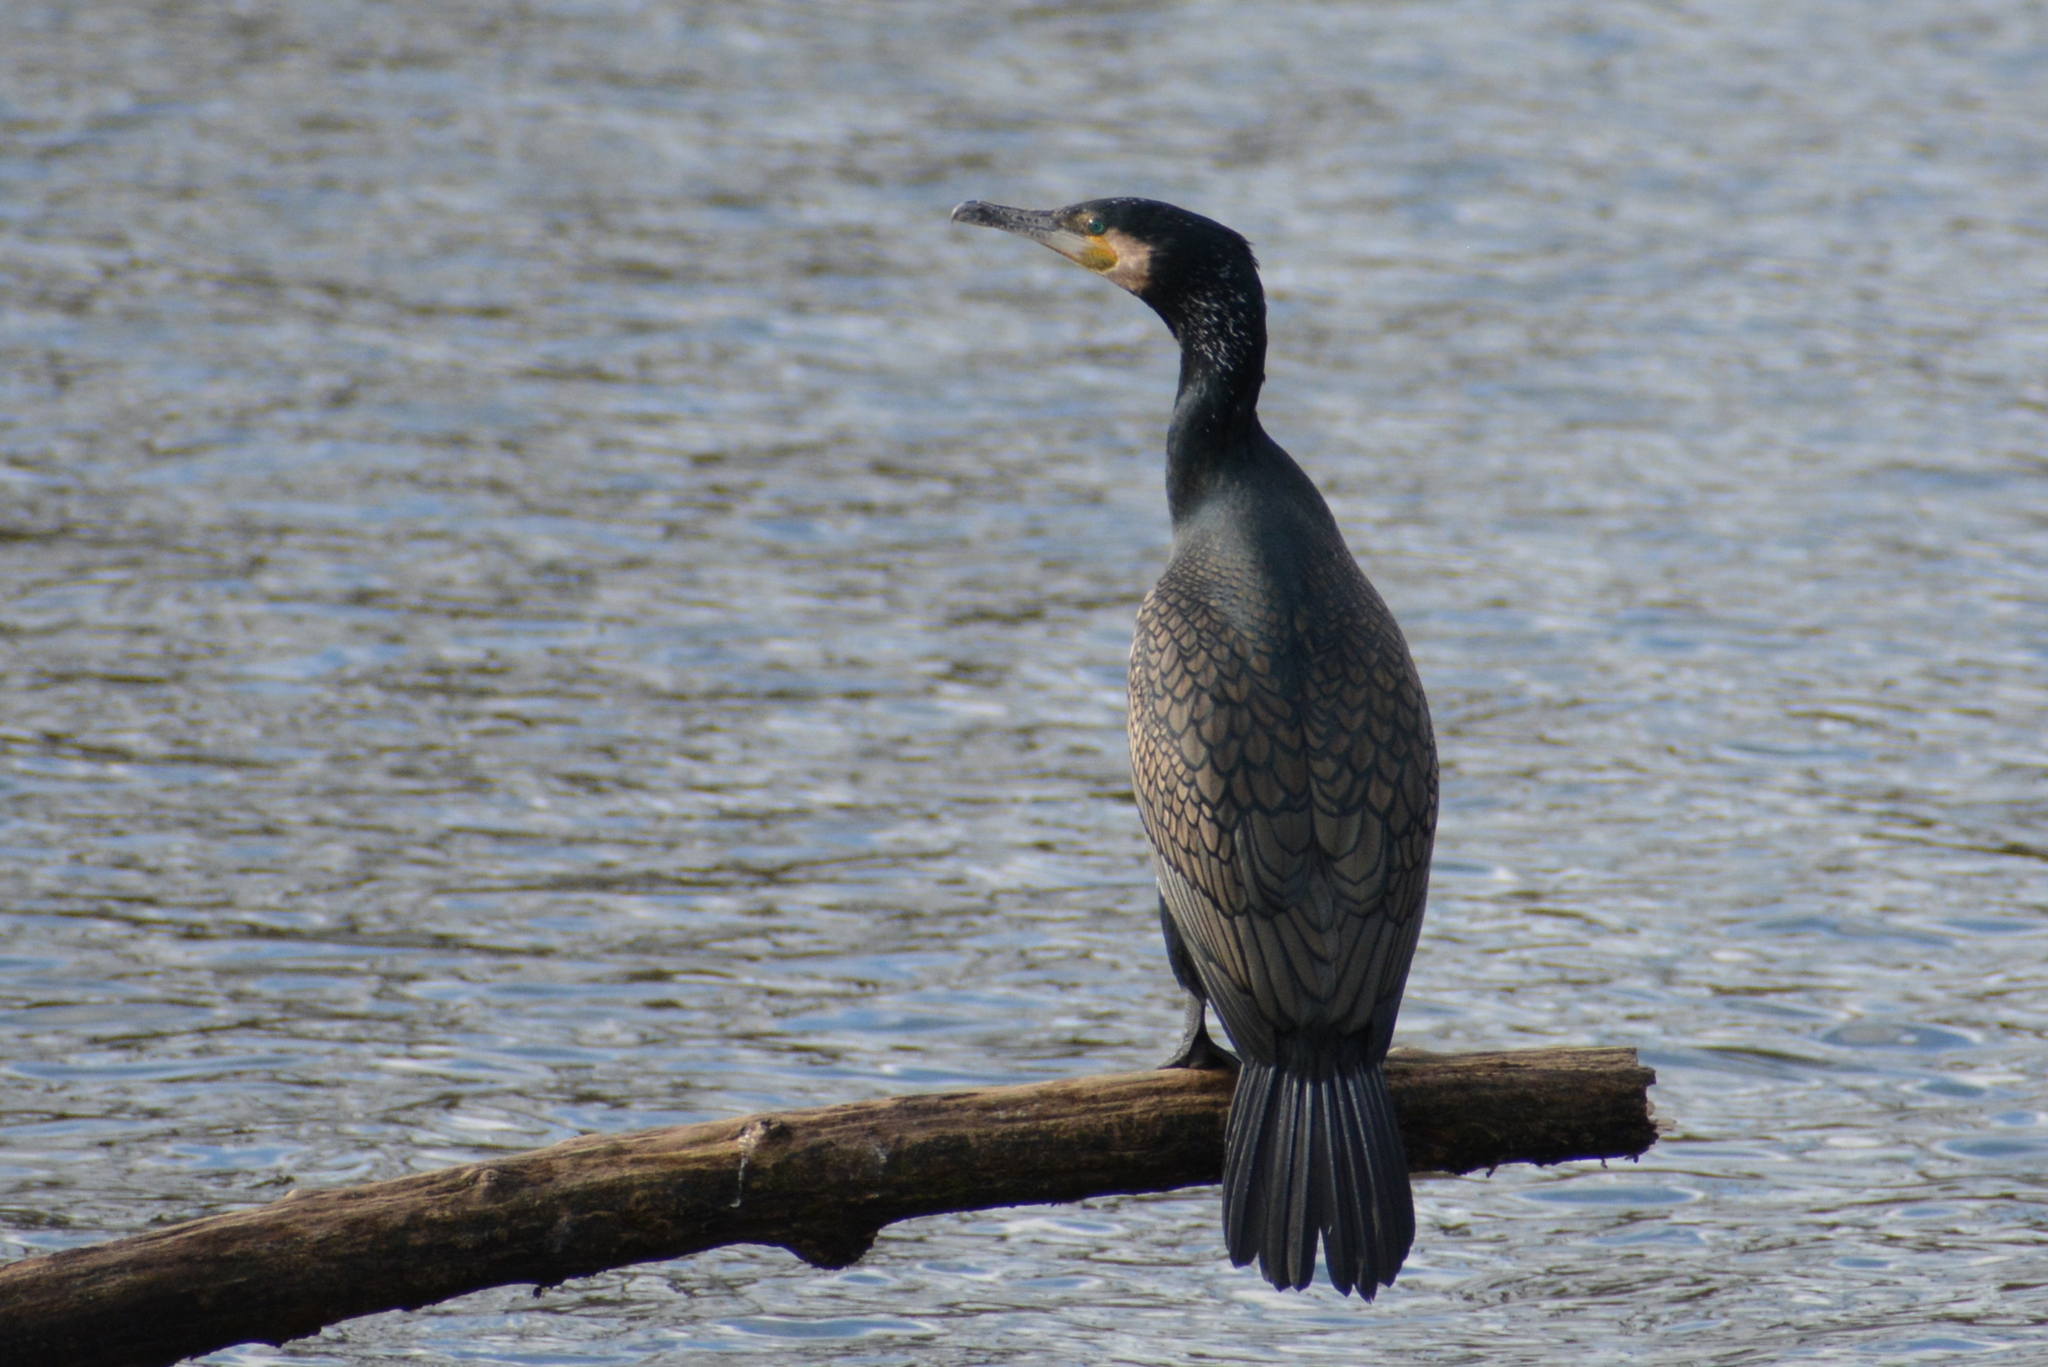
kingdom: Animalia
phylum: Chordata
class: Aves
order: Suliformes
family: Phalacrocoracidae
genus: Phalacrocorax
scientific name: Phalacrocorax carbo
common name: Great cormorant
